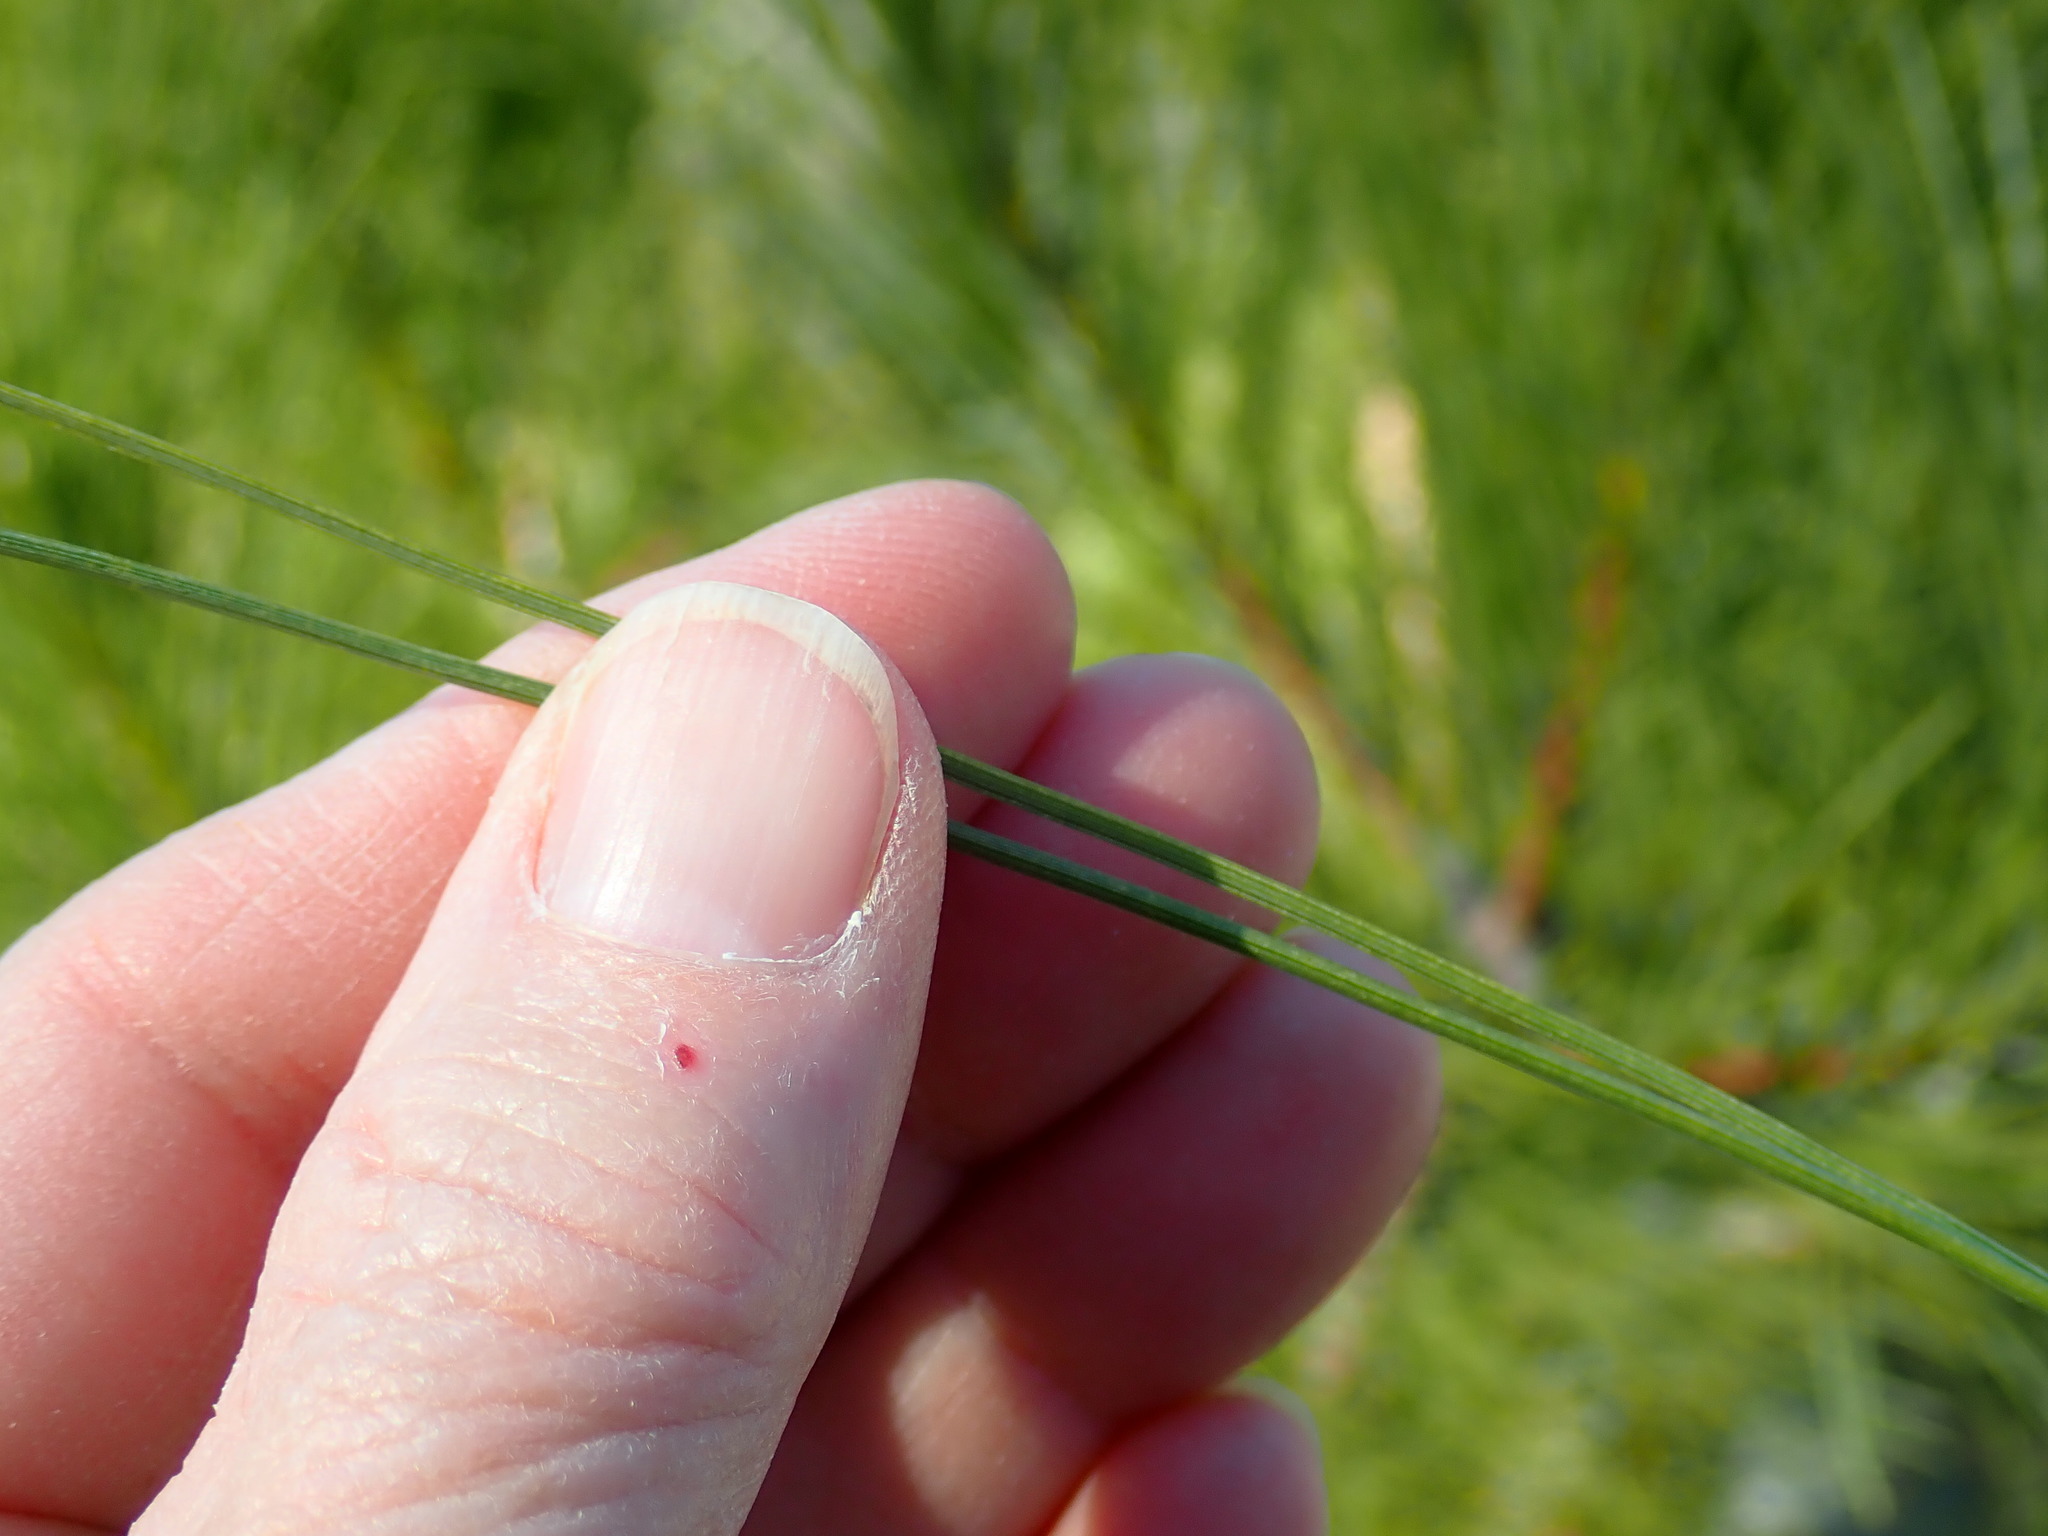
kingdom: Plantae
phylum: Tracheophyta
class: Pinopsida
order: Pinales
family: Pinaceae
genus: Pinus
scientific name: Pinus resinosa
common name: Norway pine
